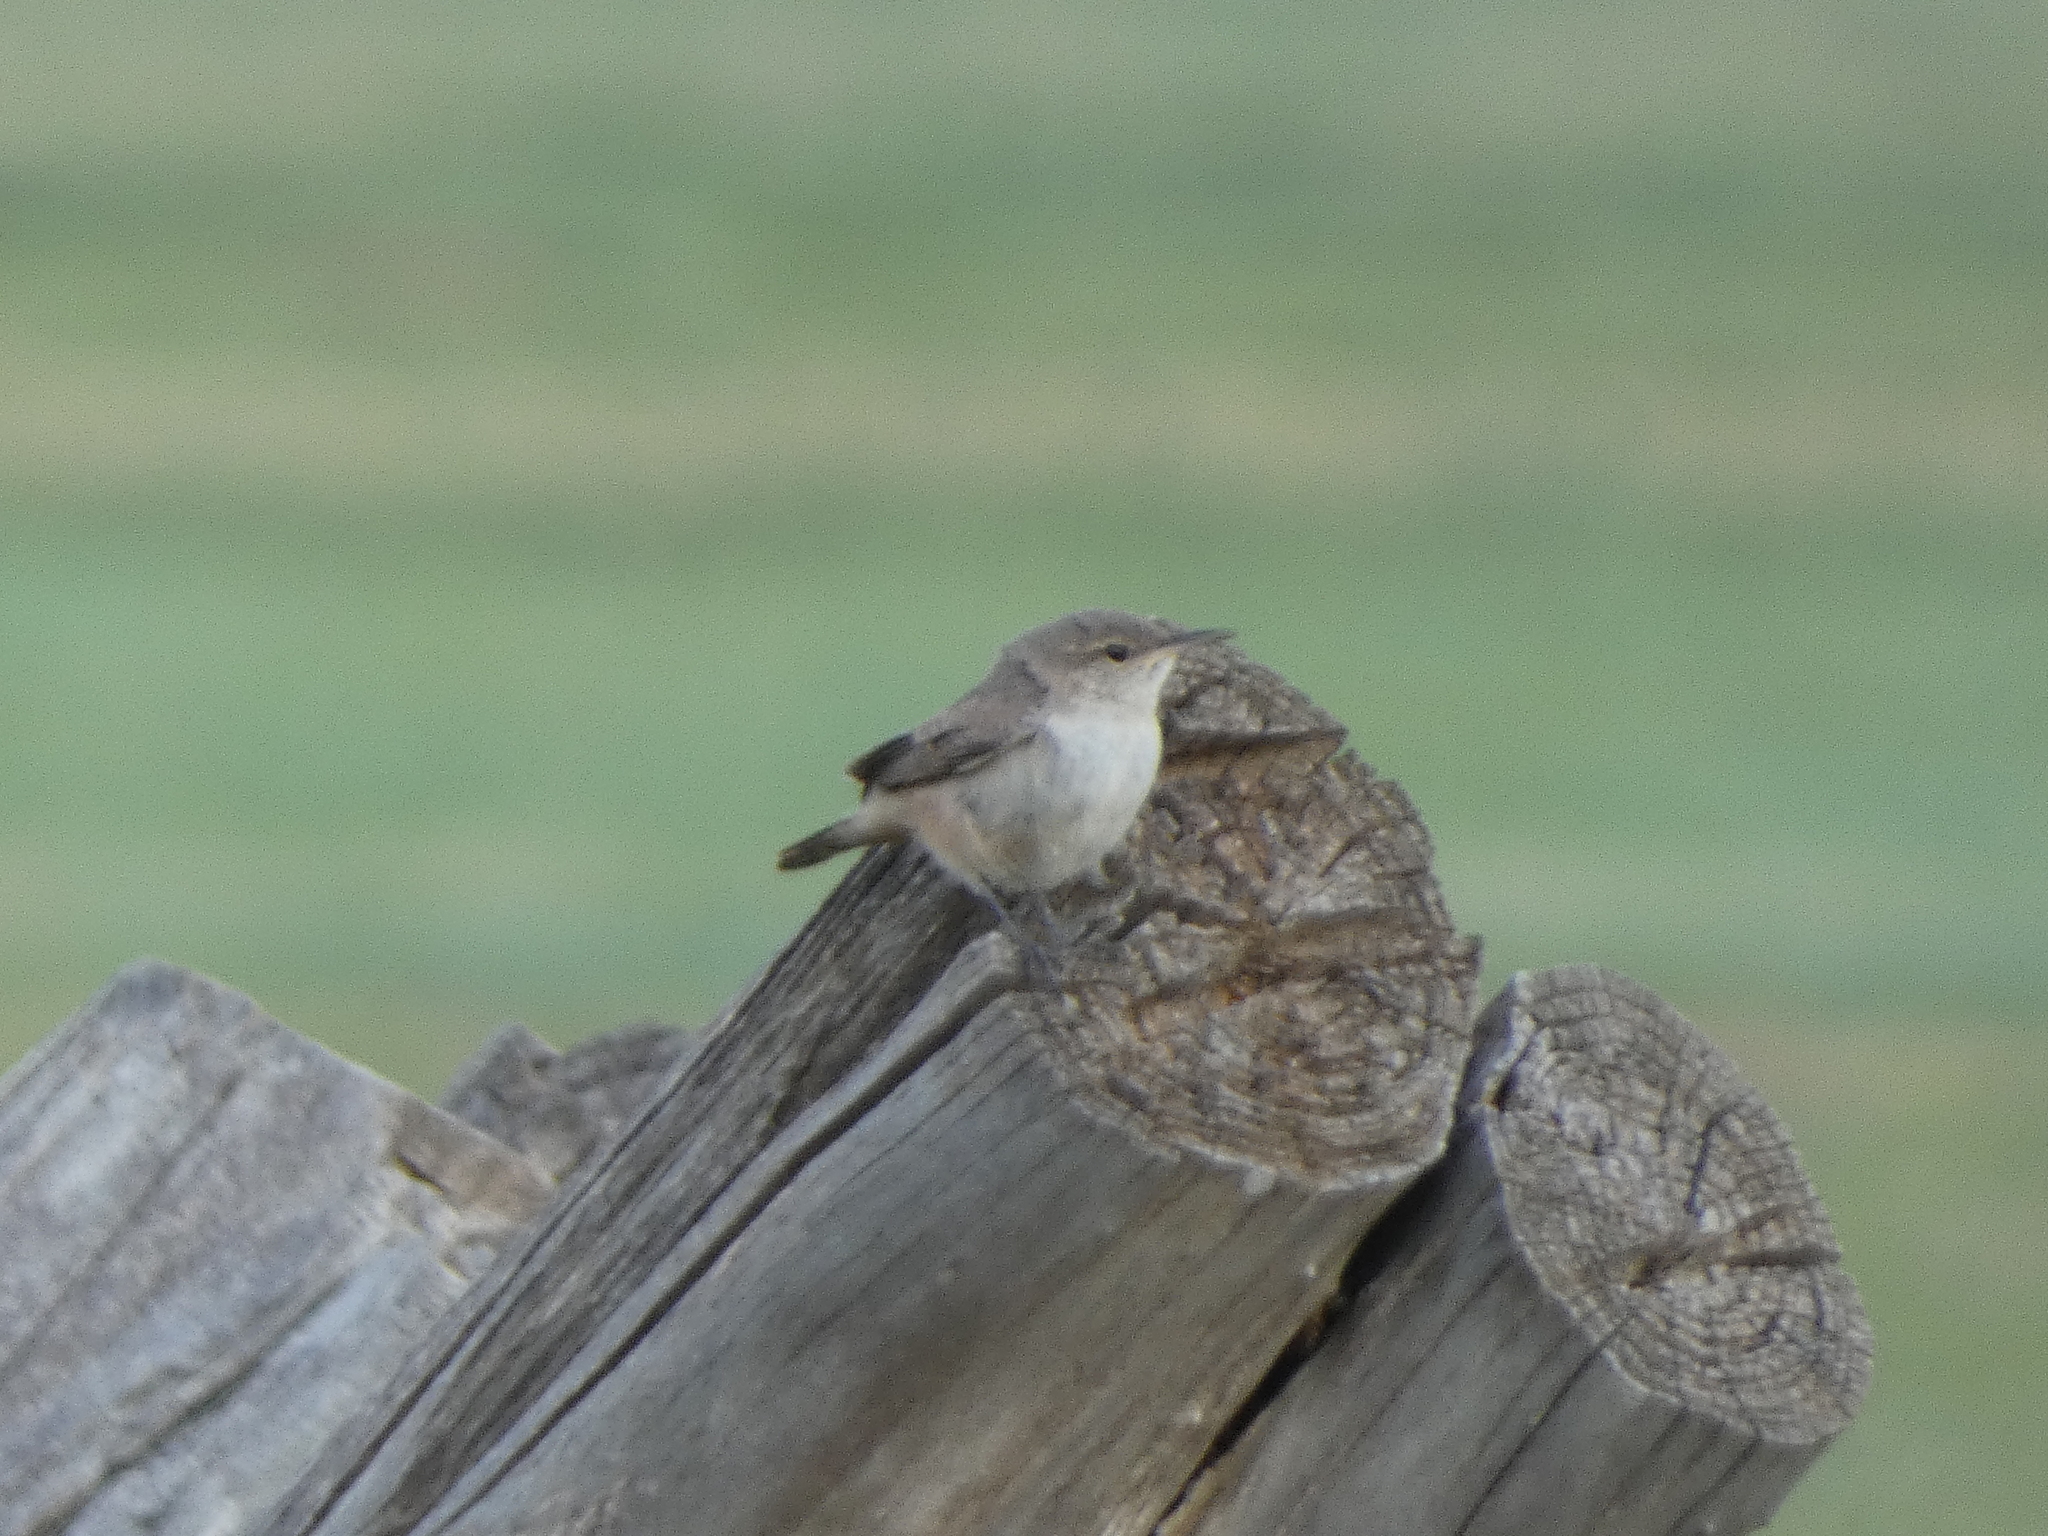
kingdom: Animalia
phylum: Chordata
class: Aves
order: Passeriformes
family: Troglodytidae
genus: Troglodytes
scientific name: Troglodytes aedon
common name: House wren
